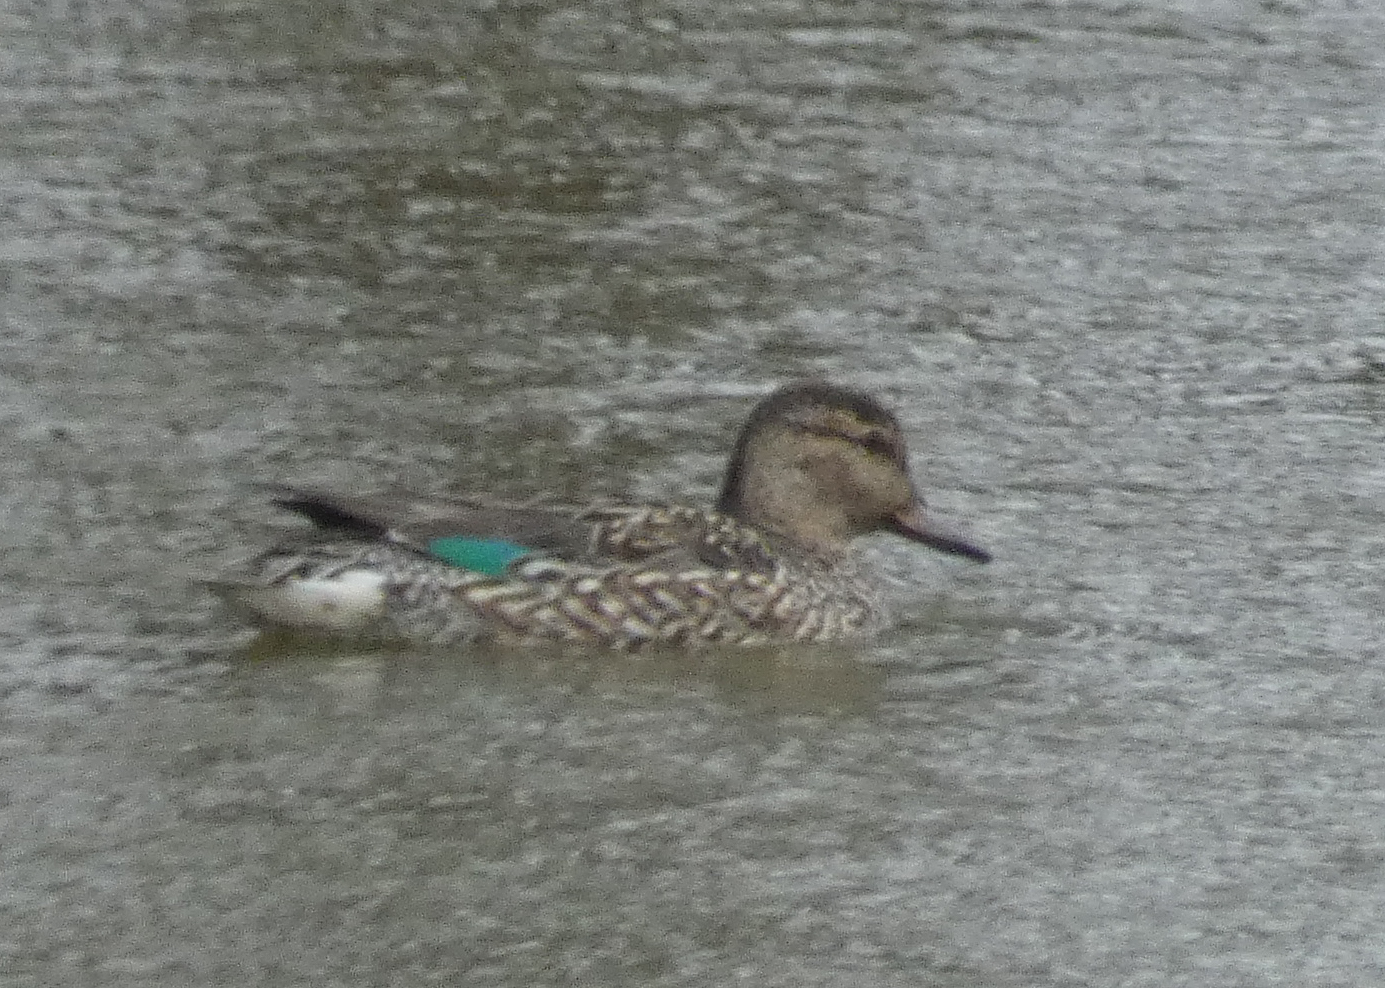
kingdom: Animalia
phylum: Chordata
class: Aves
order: Anseriformes
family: Anatidae
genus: Anas
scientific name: Anas crecca
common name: Eurasian teal
